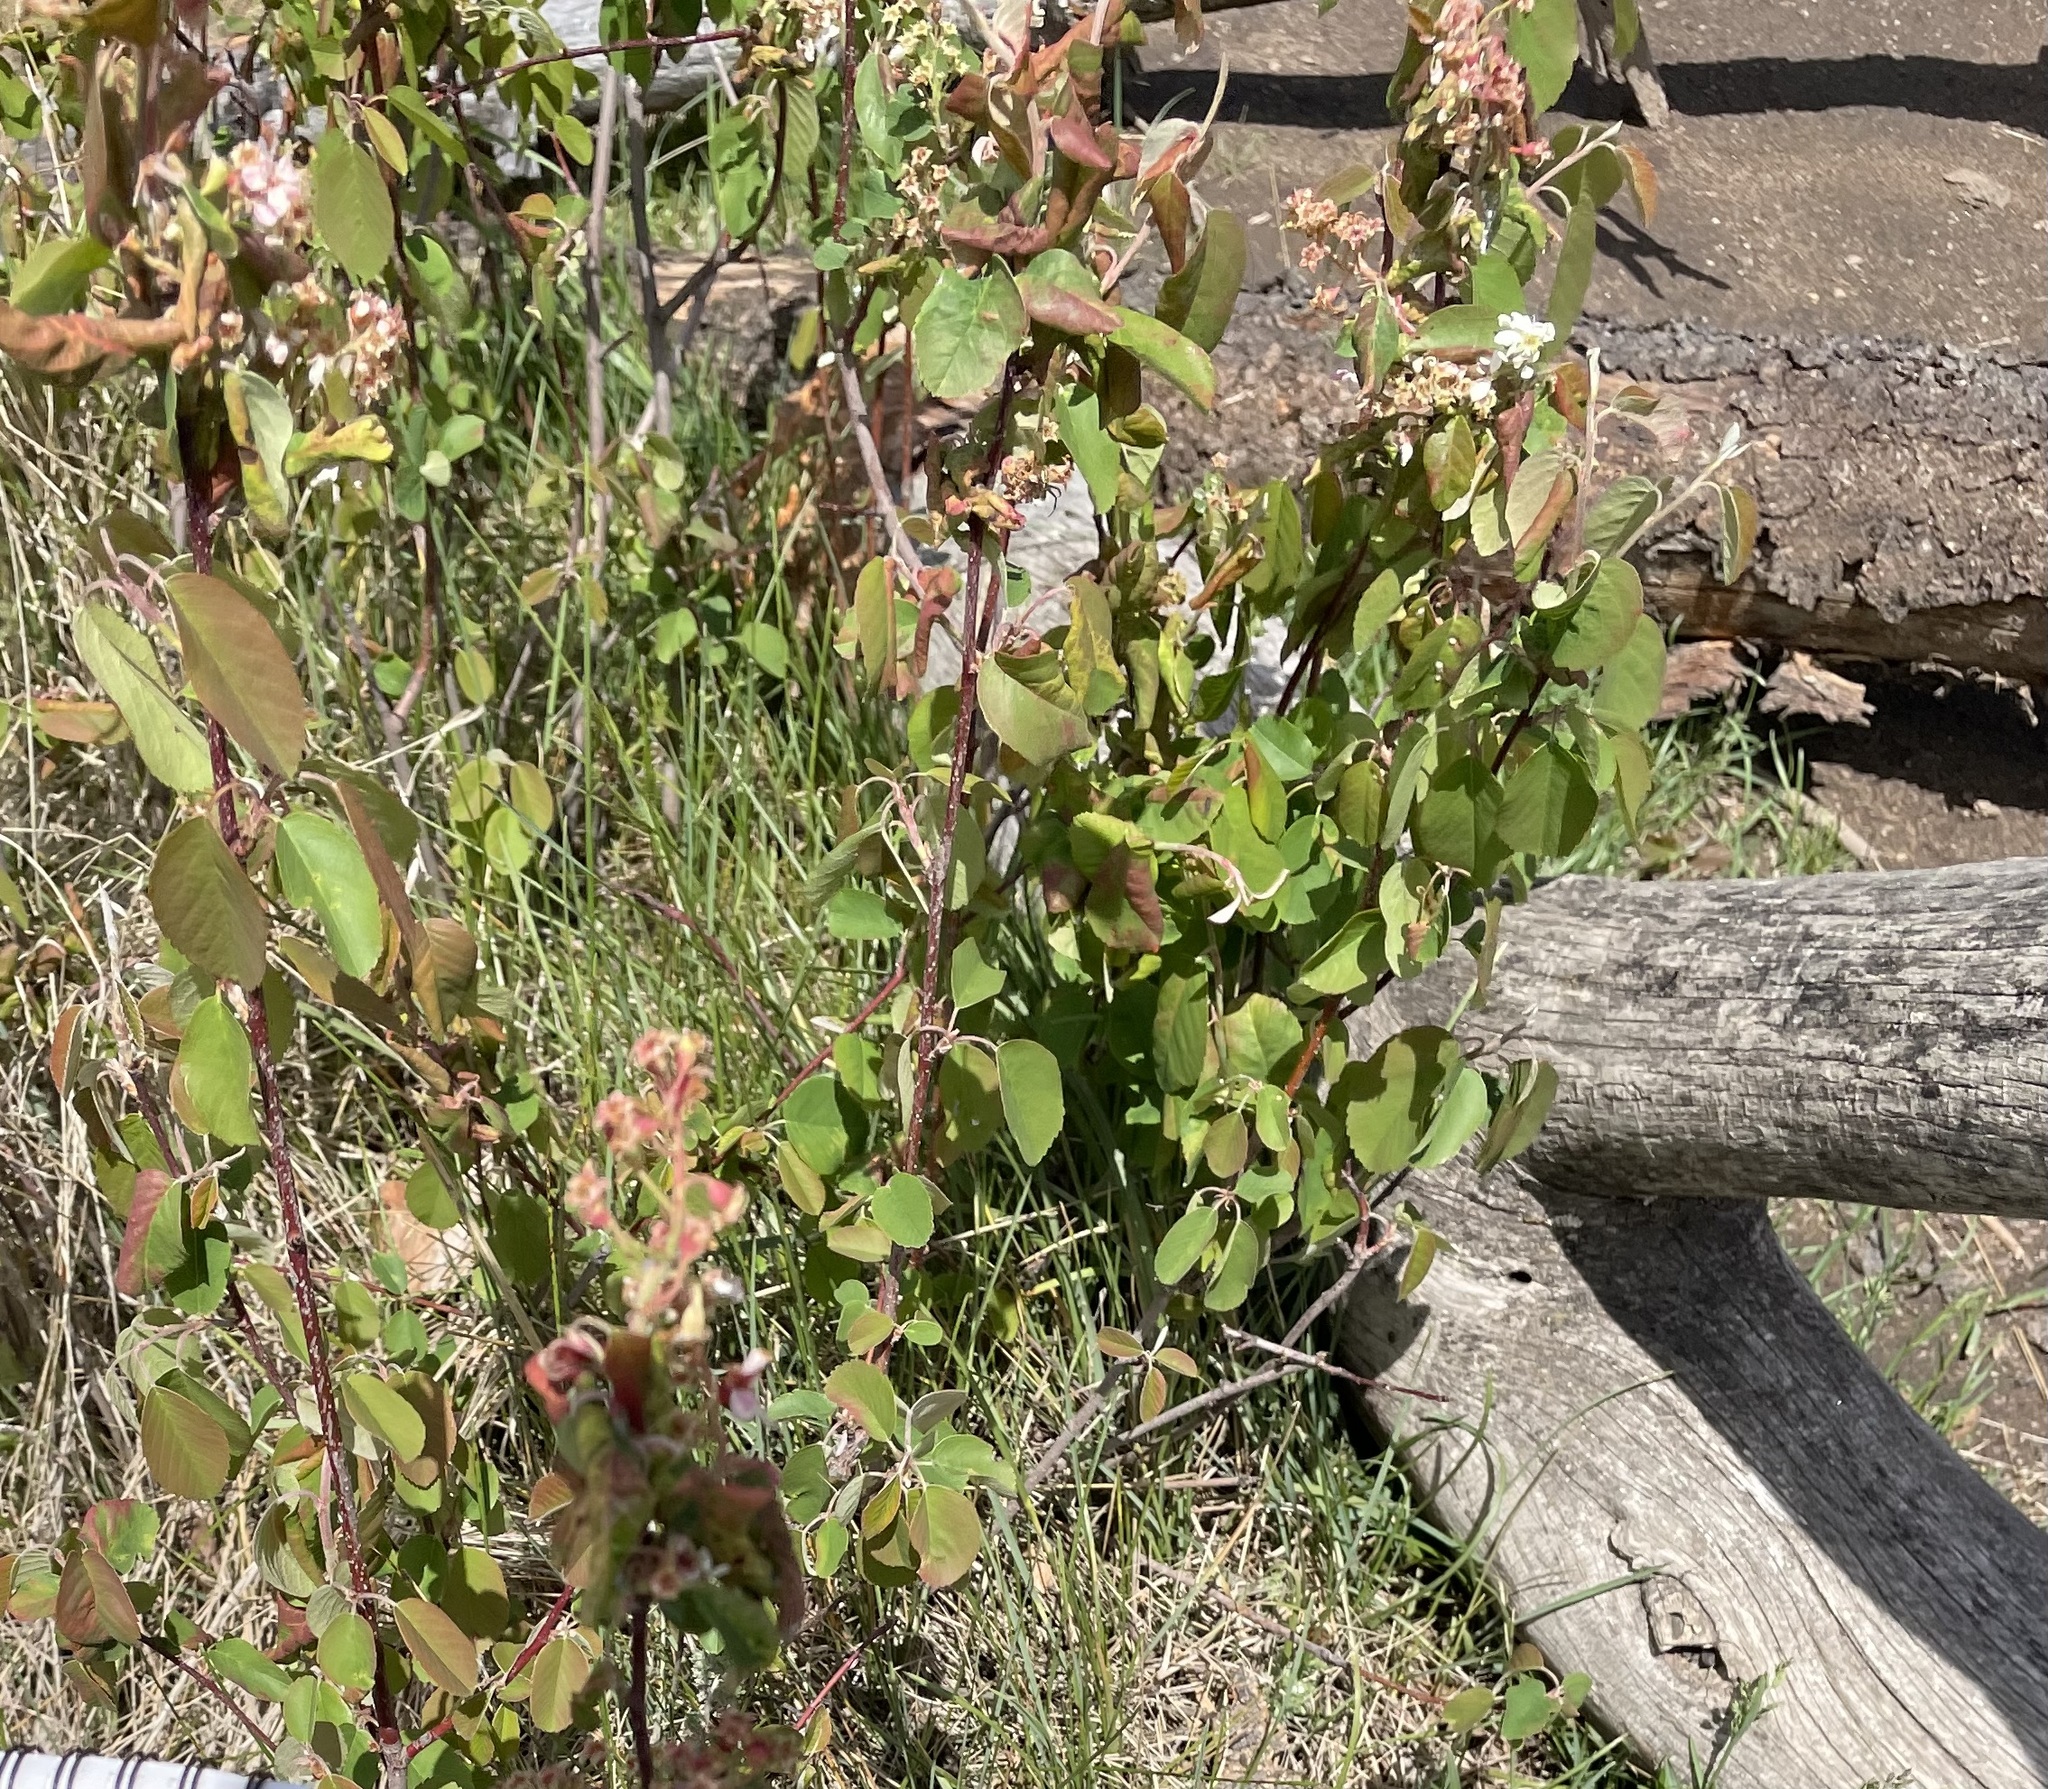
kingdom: Plantae
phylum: Tracheophyta
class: Magnoliopsida
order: Rosales
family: Rosaceae
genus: Amelanchier
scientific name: Amelanchier alnifolia
